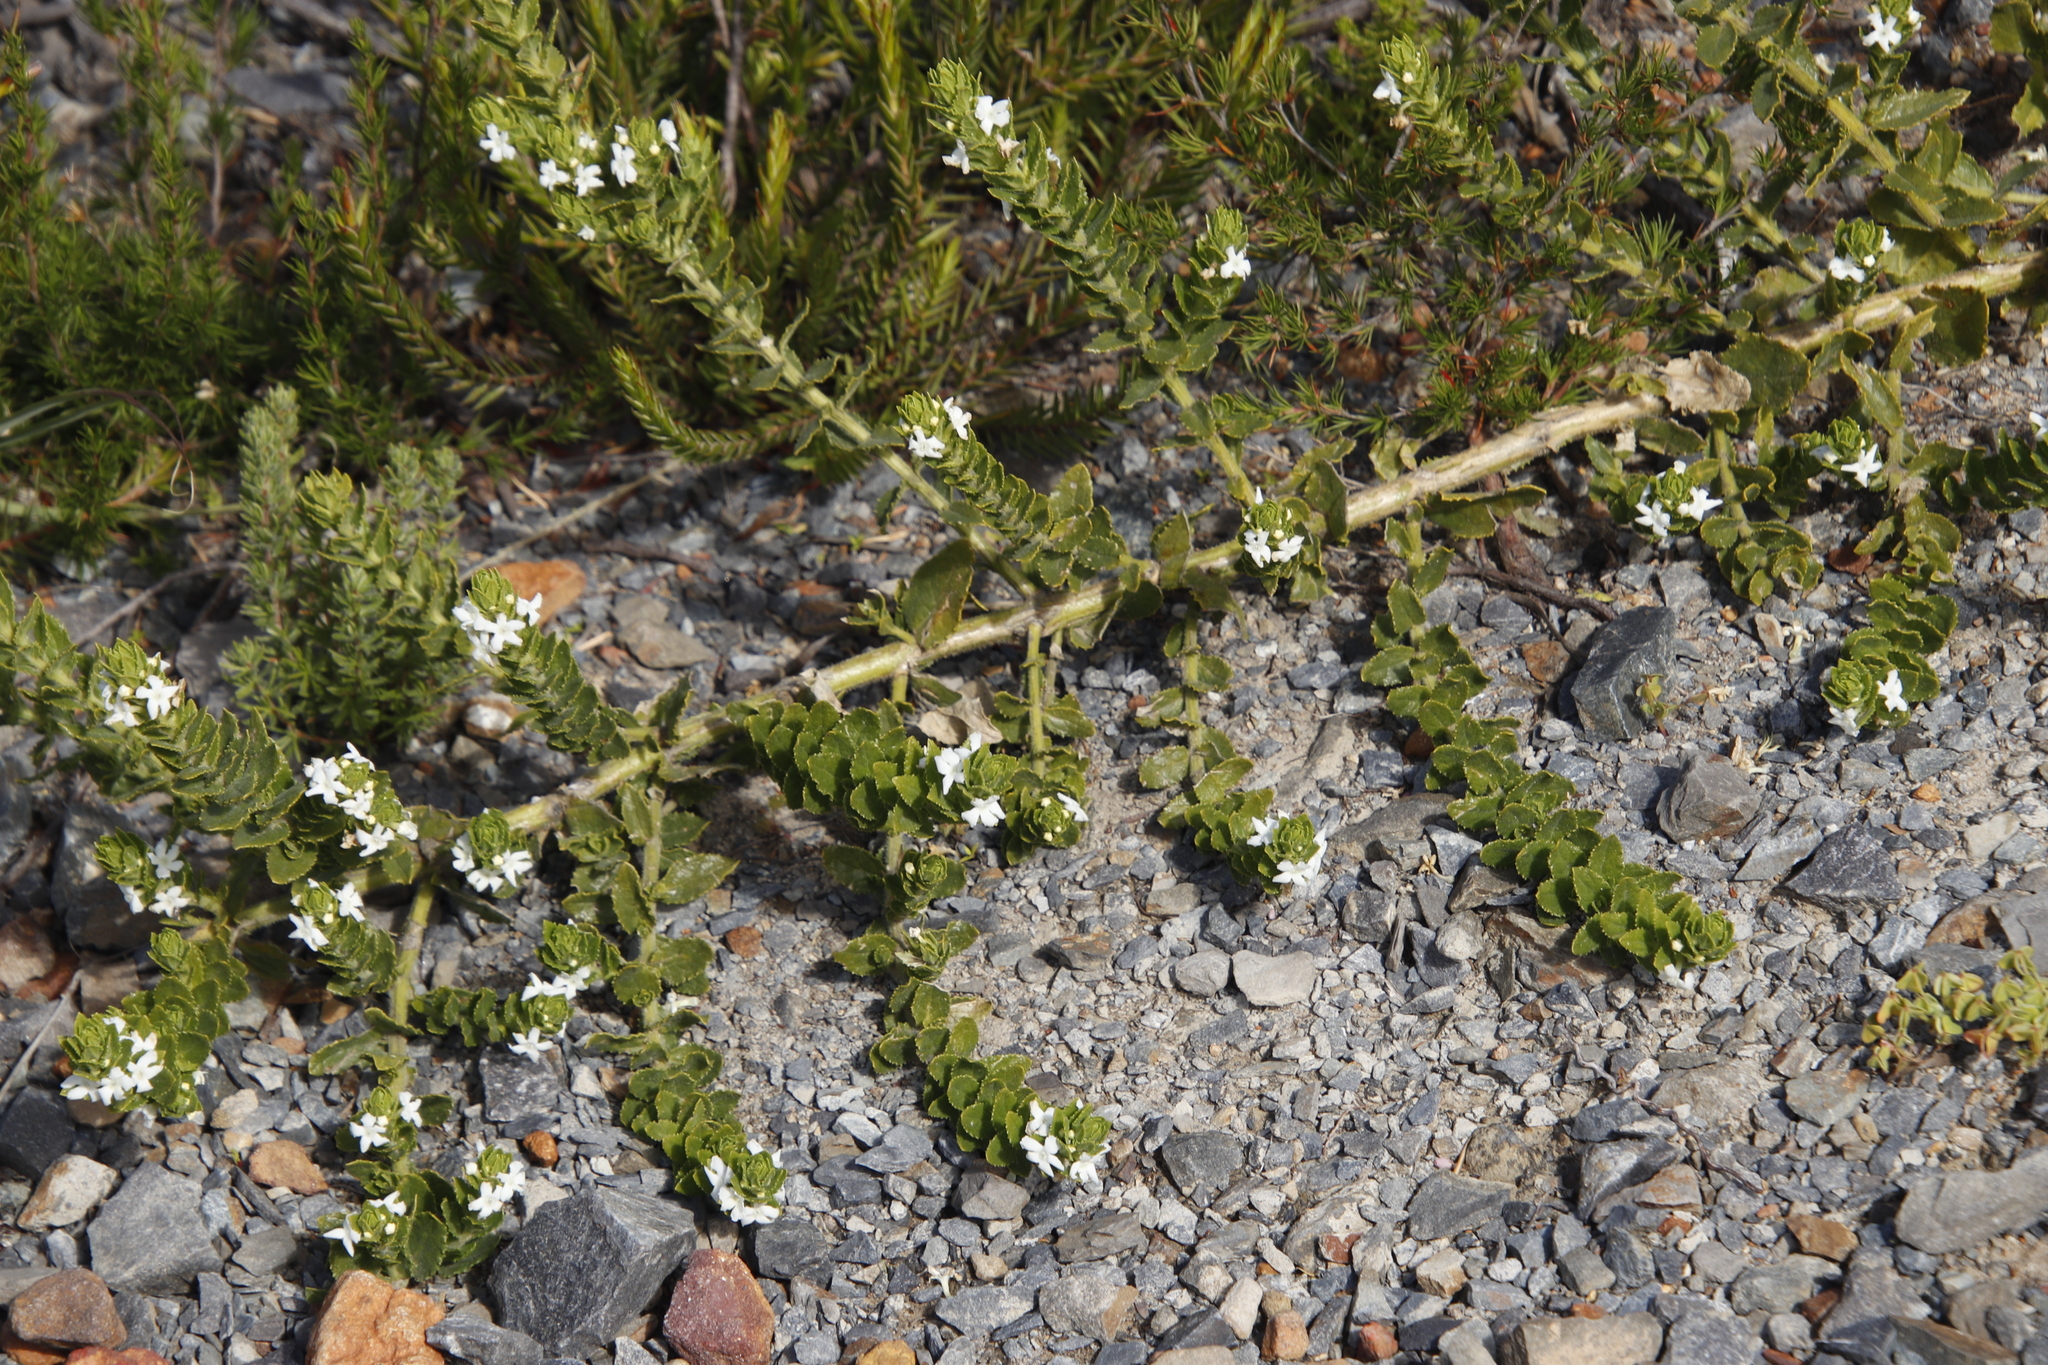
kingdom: Plantae
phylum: Tracheophyta
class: Magnoliopsida
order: Lamiales
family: Scrophulariaceae
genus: Oftia
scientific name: Oftia africana
